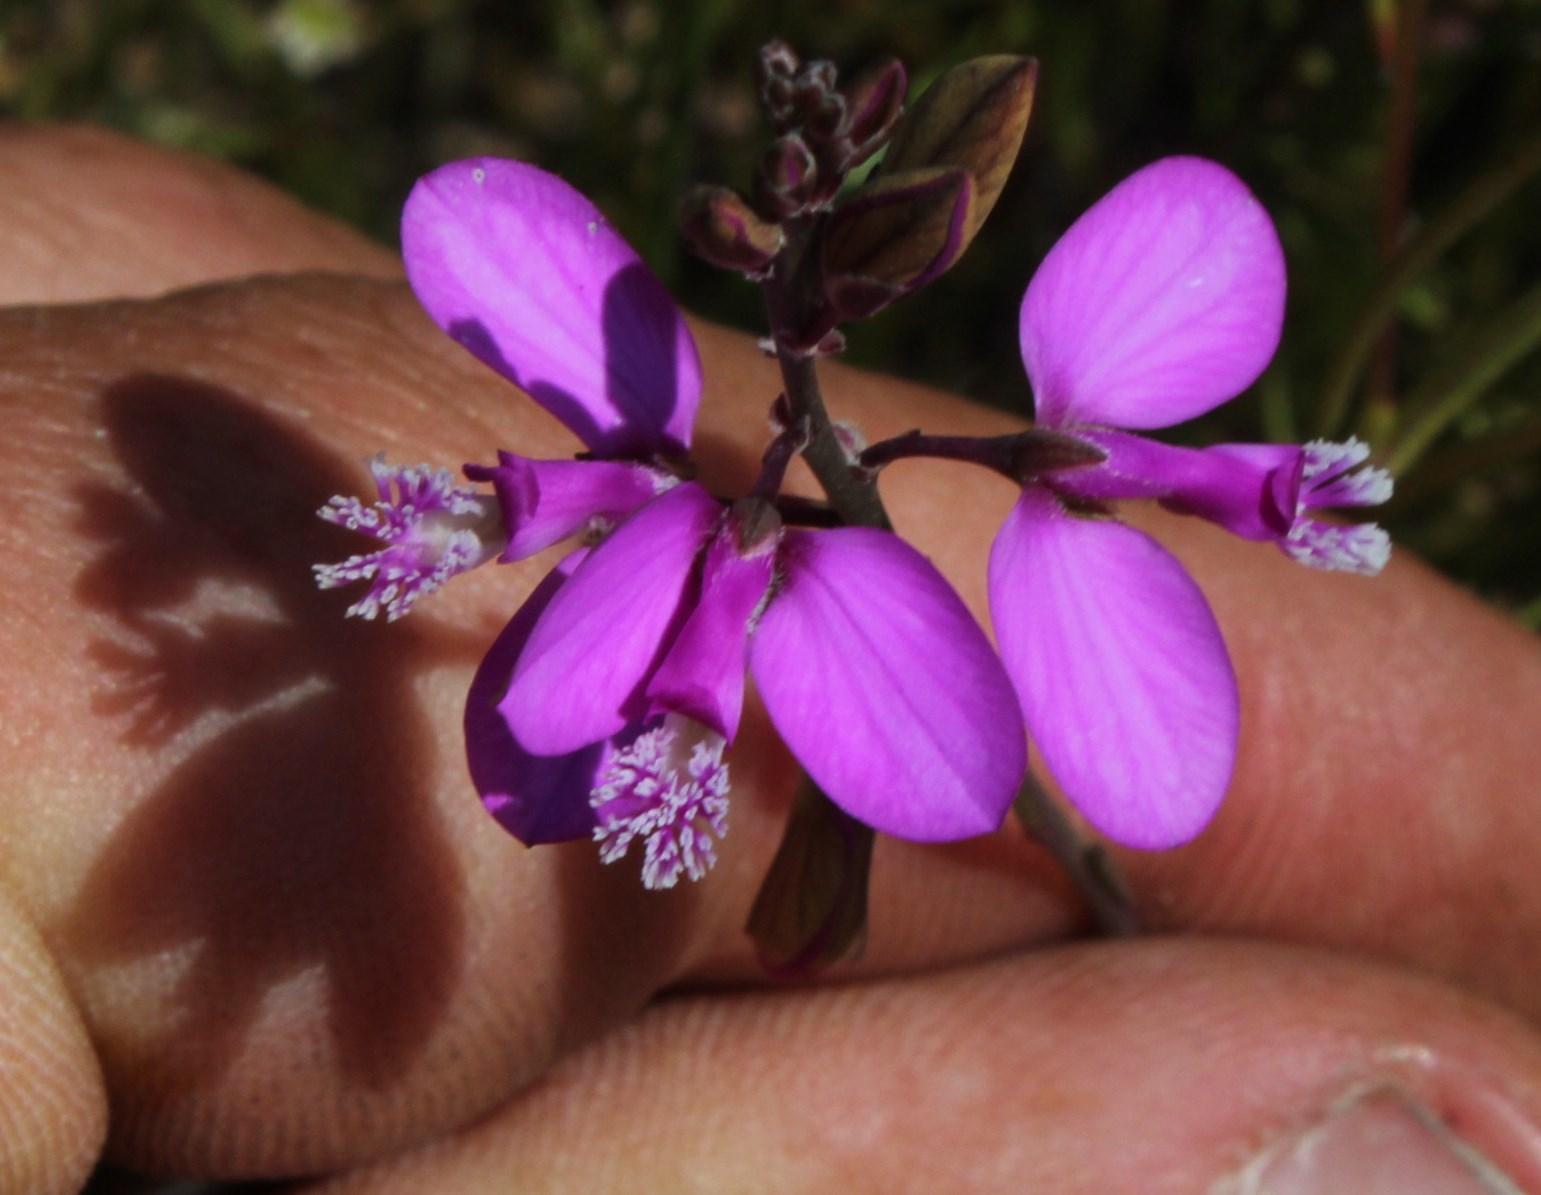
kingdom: Plantae
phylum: Tracheophyta
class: Magnoliopsida
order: Fabales
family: Polygalaceae
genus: Polygala
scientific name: Polygala garcini
